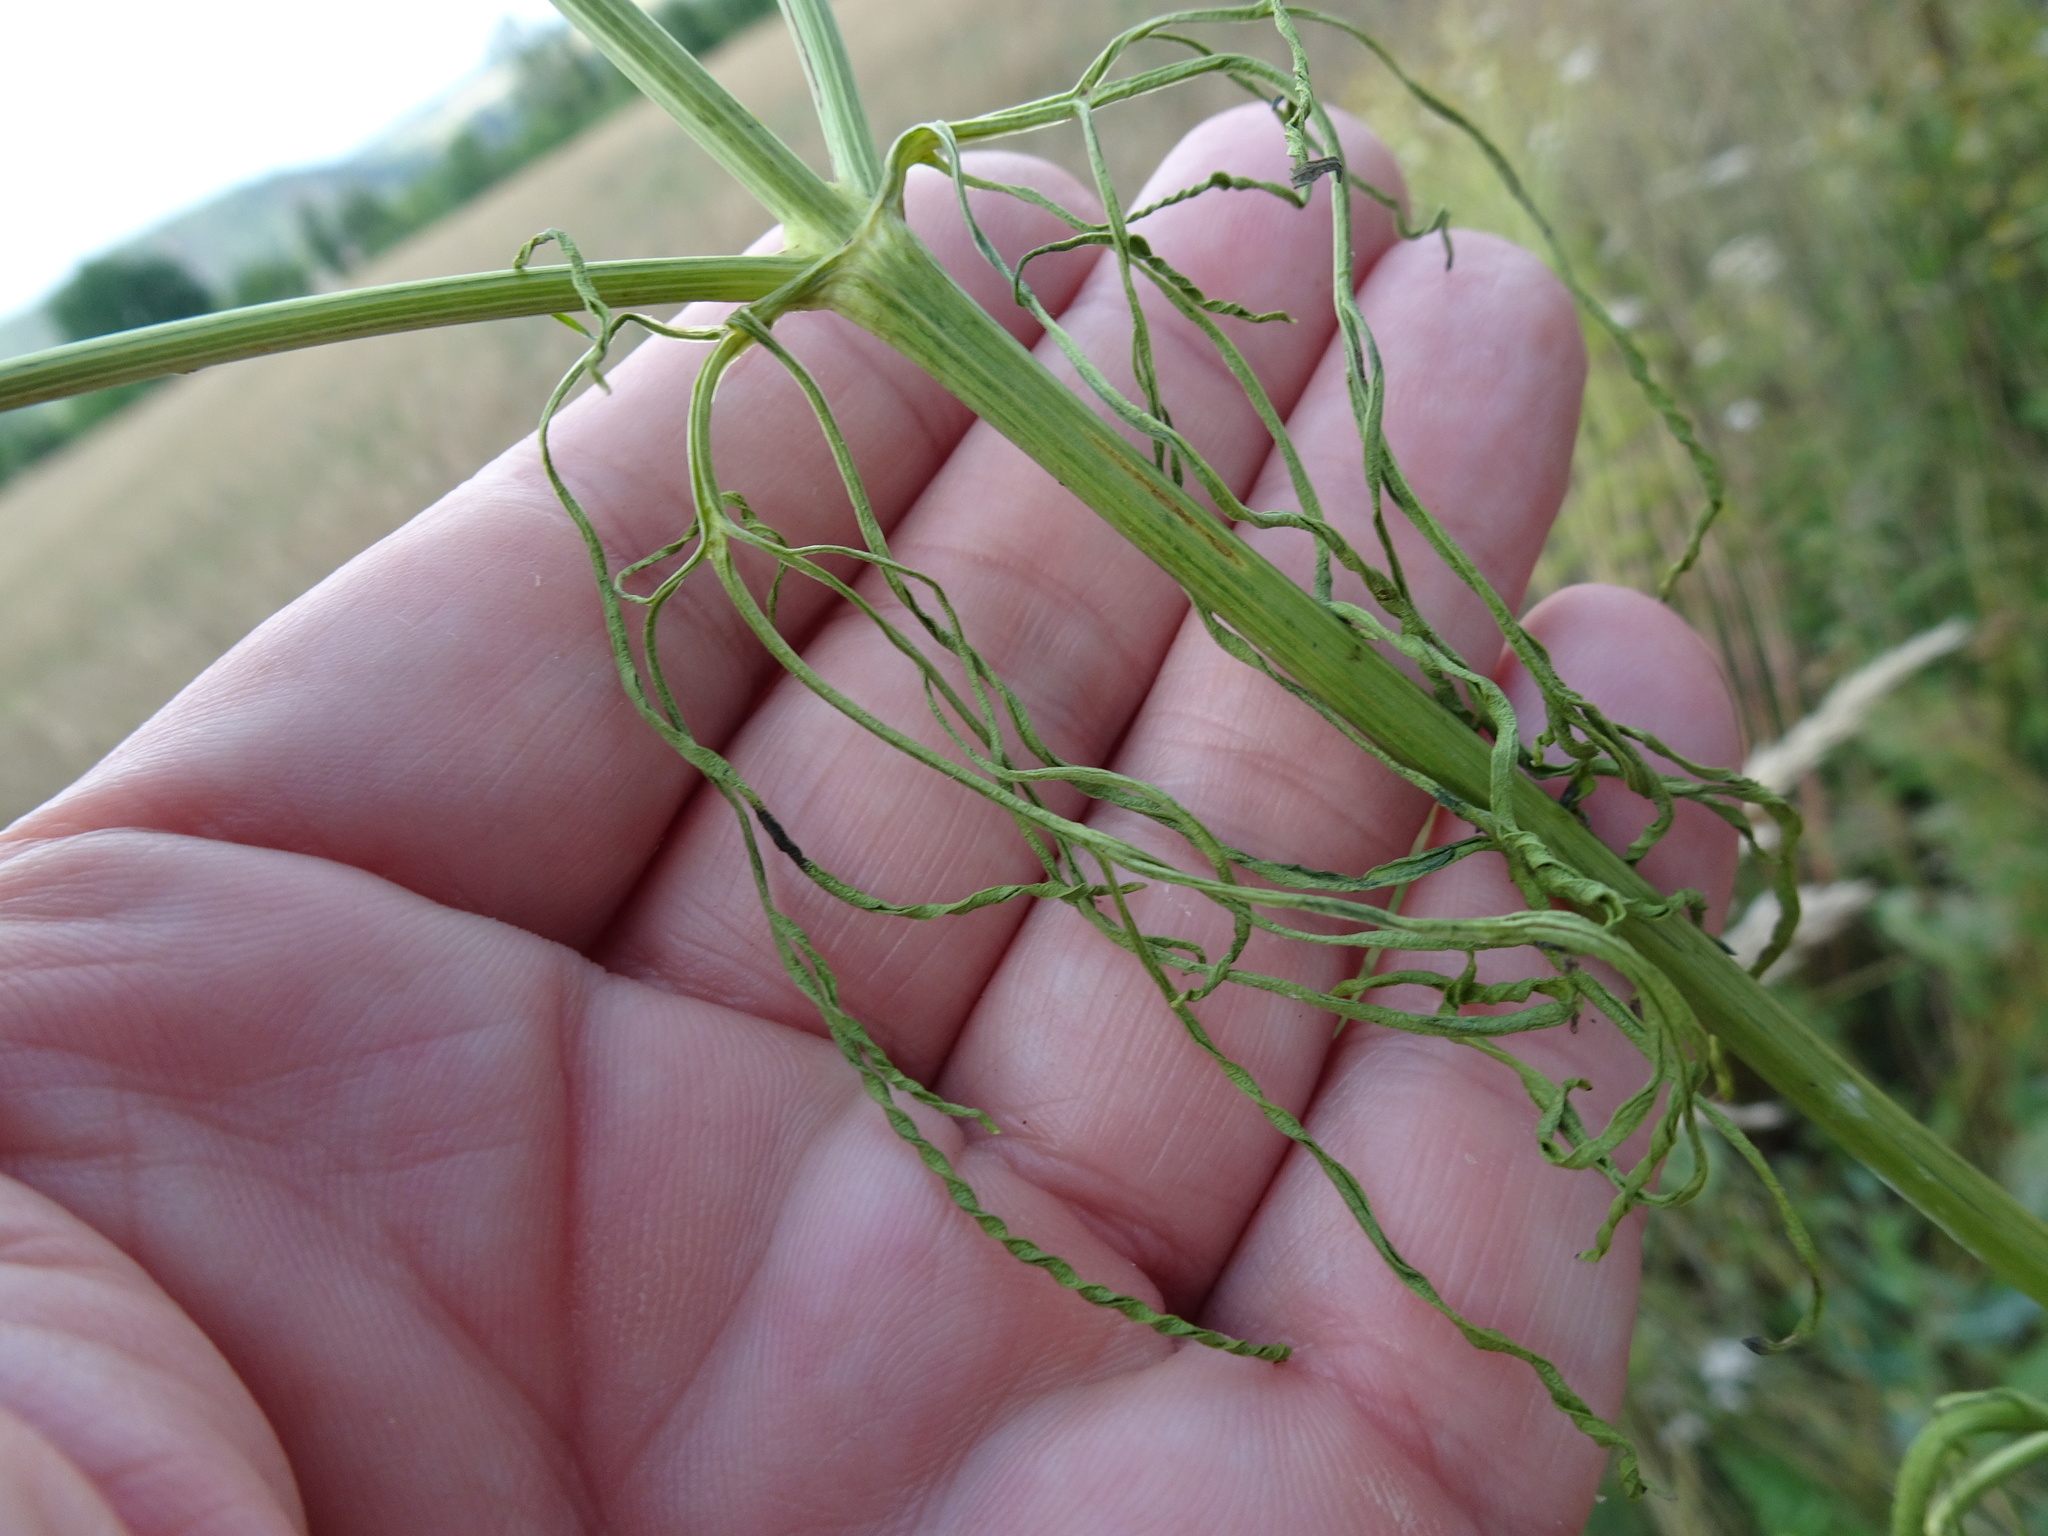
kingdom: Plantae
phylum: Tracheophyta
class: Magnoliopsida
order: Asterales
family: Asteraceae
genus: Coreopsis
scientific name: Coreopsis tinctoria
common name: Garden tickseed
